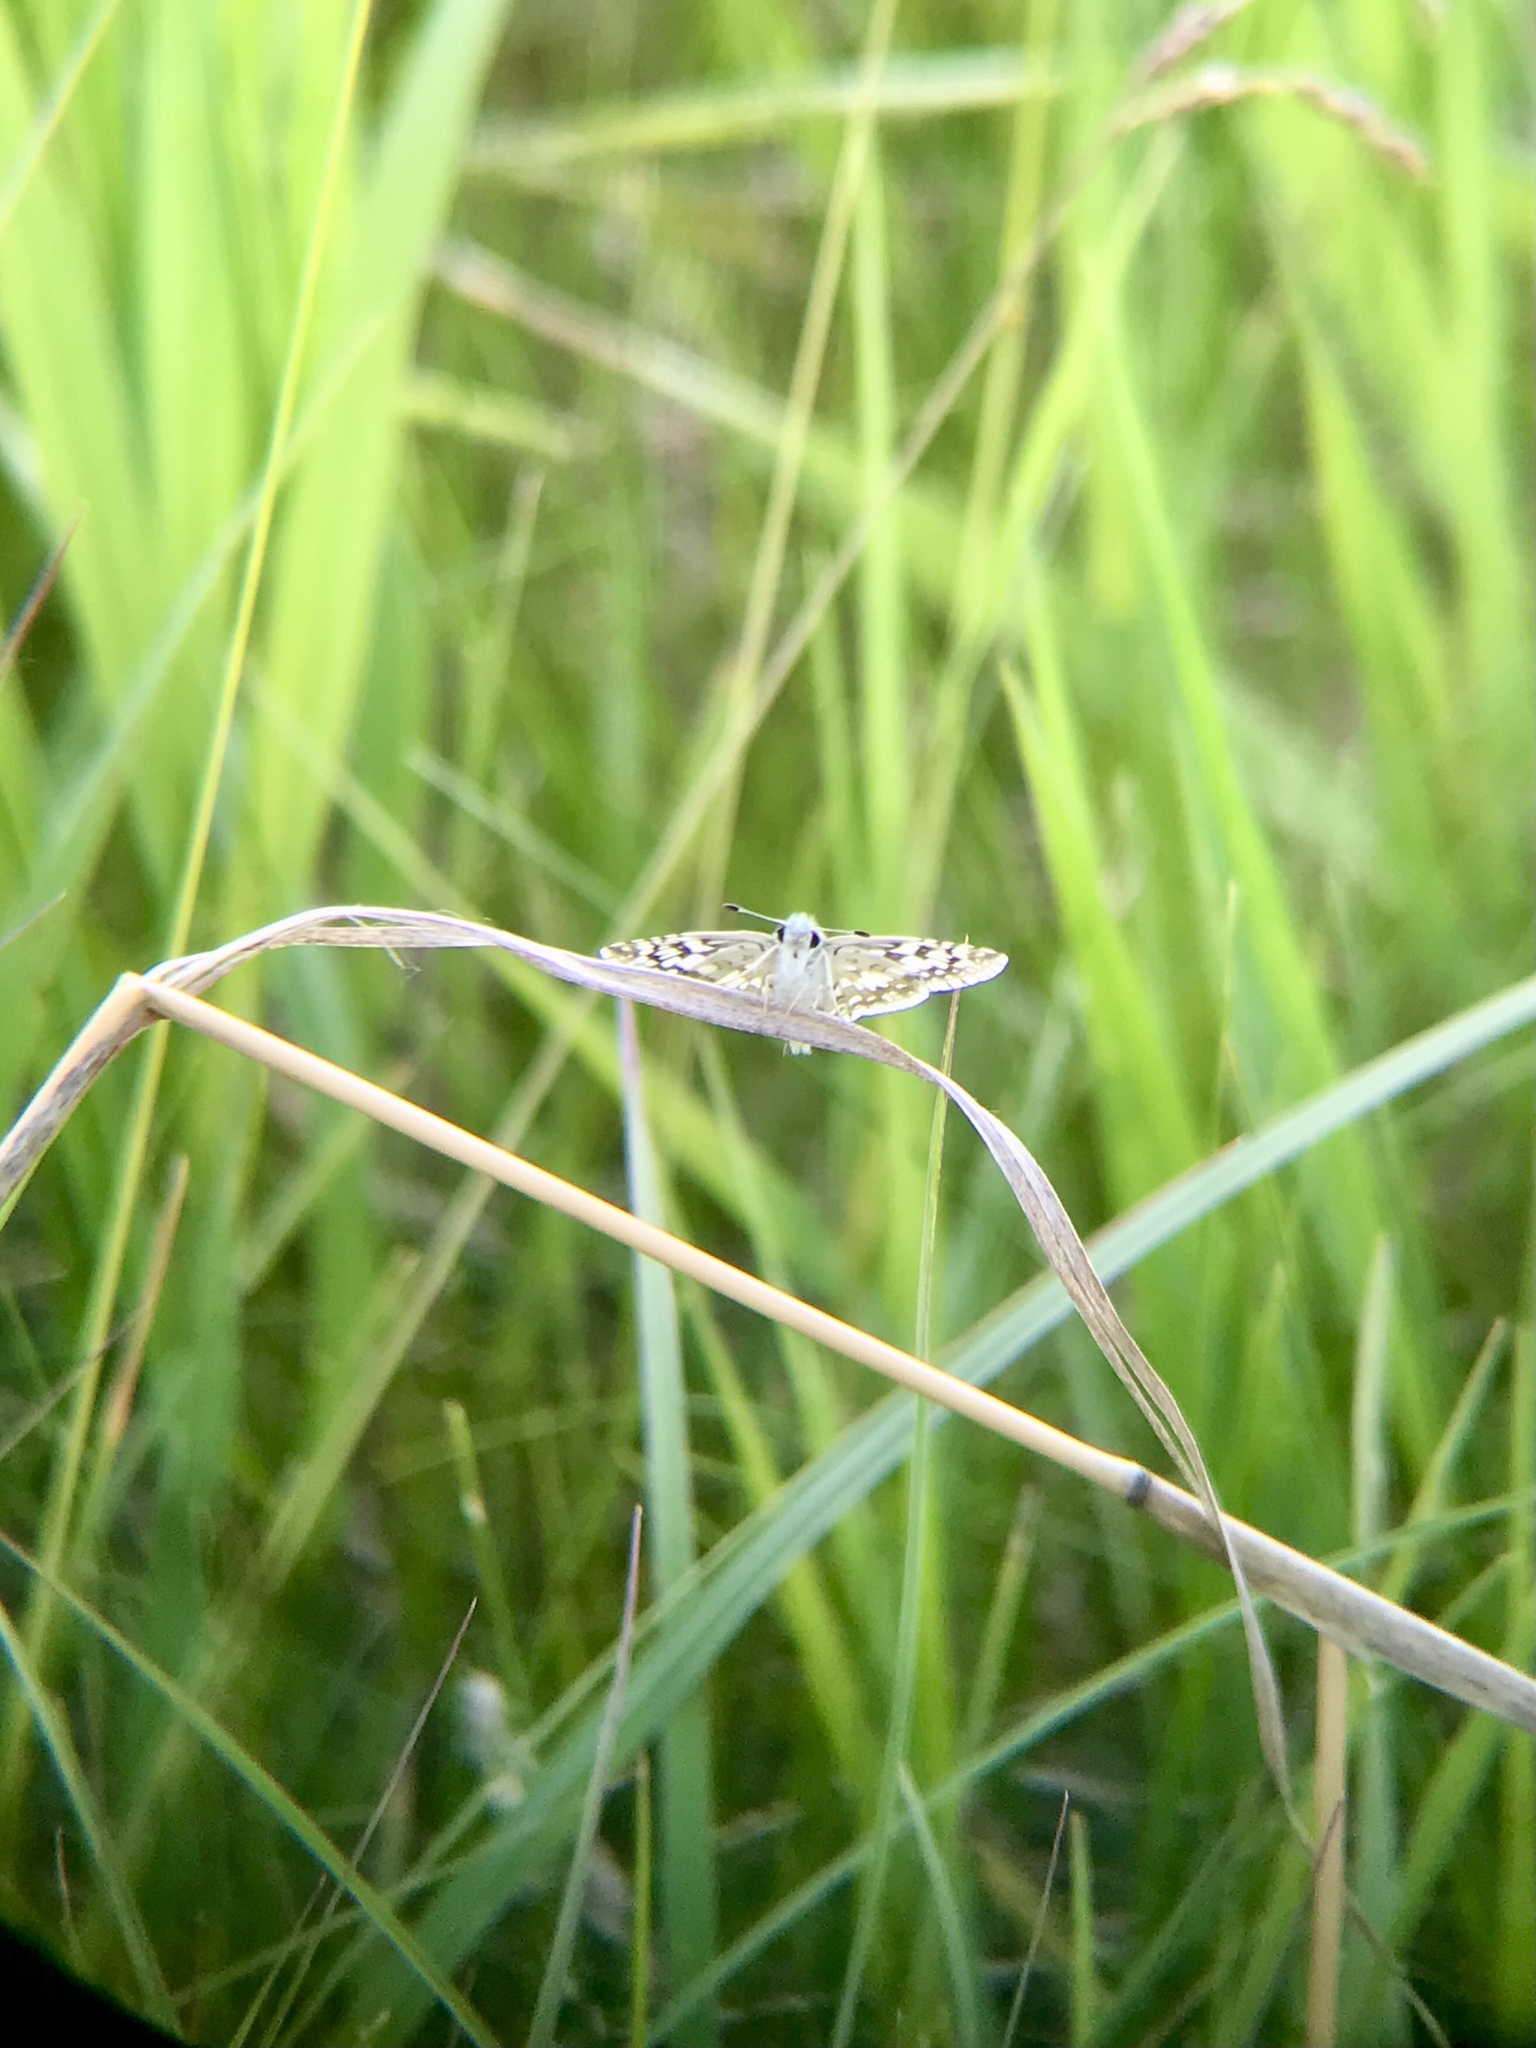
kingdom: Animalia
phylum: Arthropoda
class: Insecta
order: Lepidoptera
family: Hesperiidae
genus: Burnsius
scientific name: Burnsius communis
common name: Common checkered-skipper
